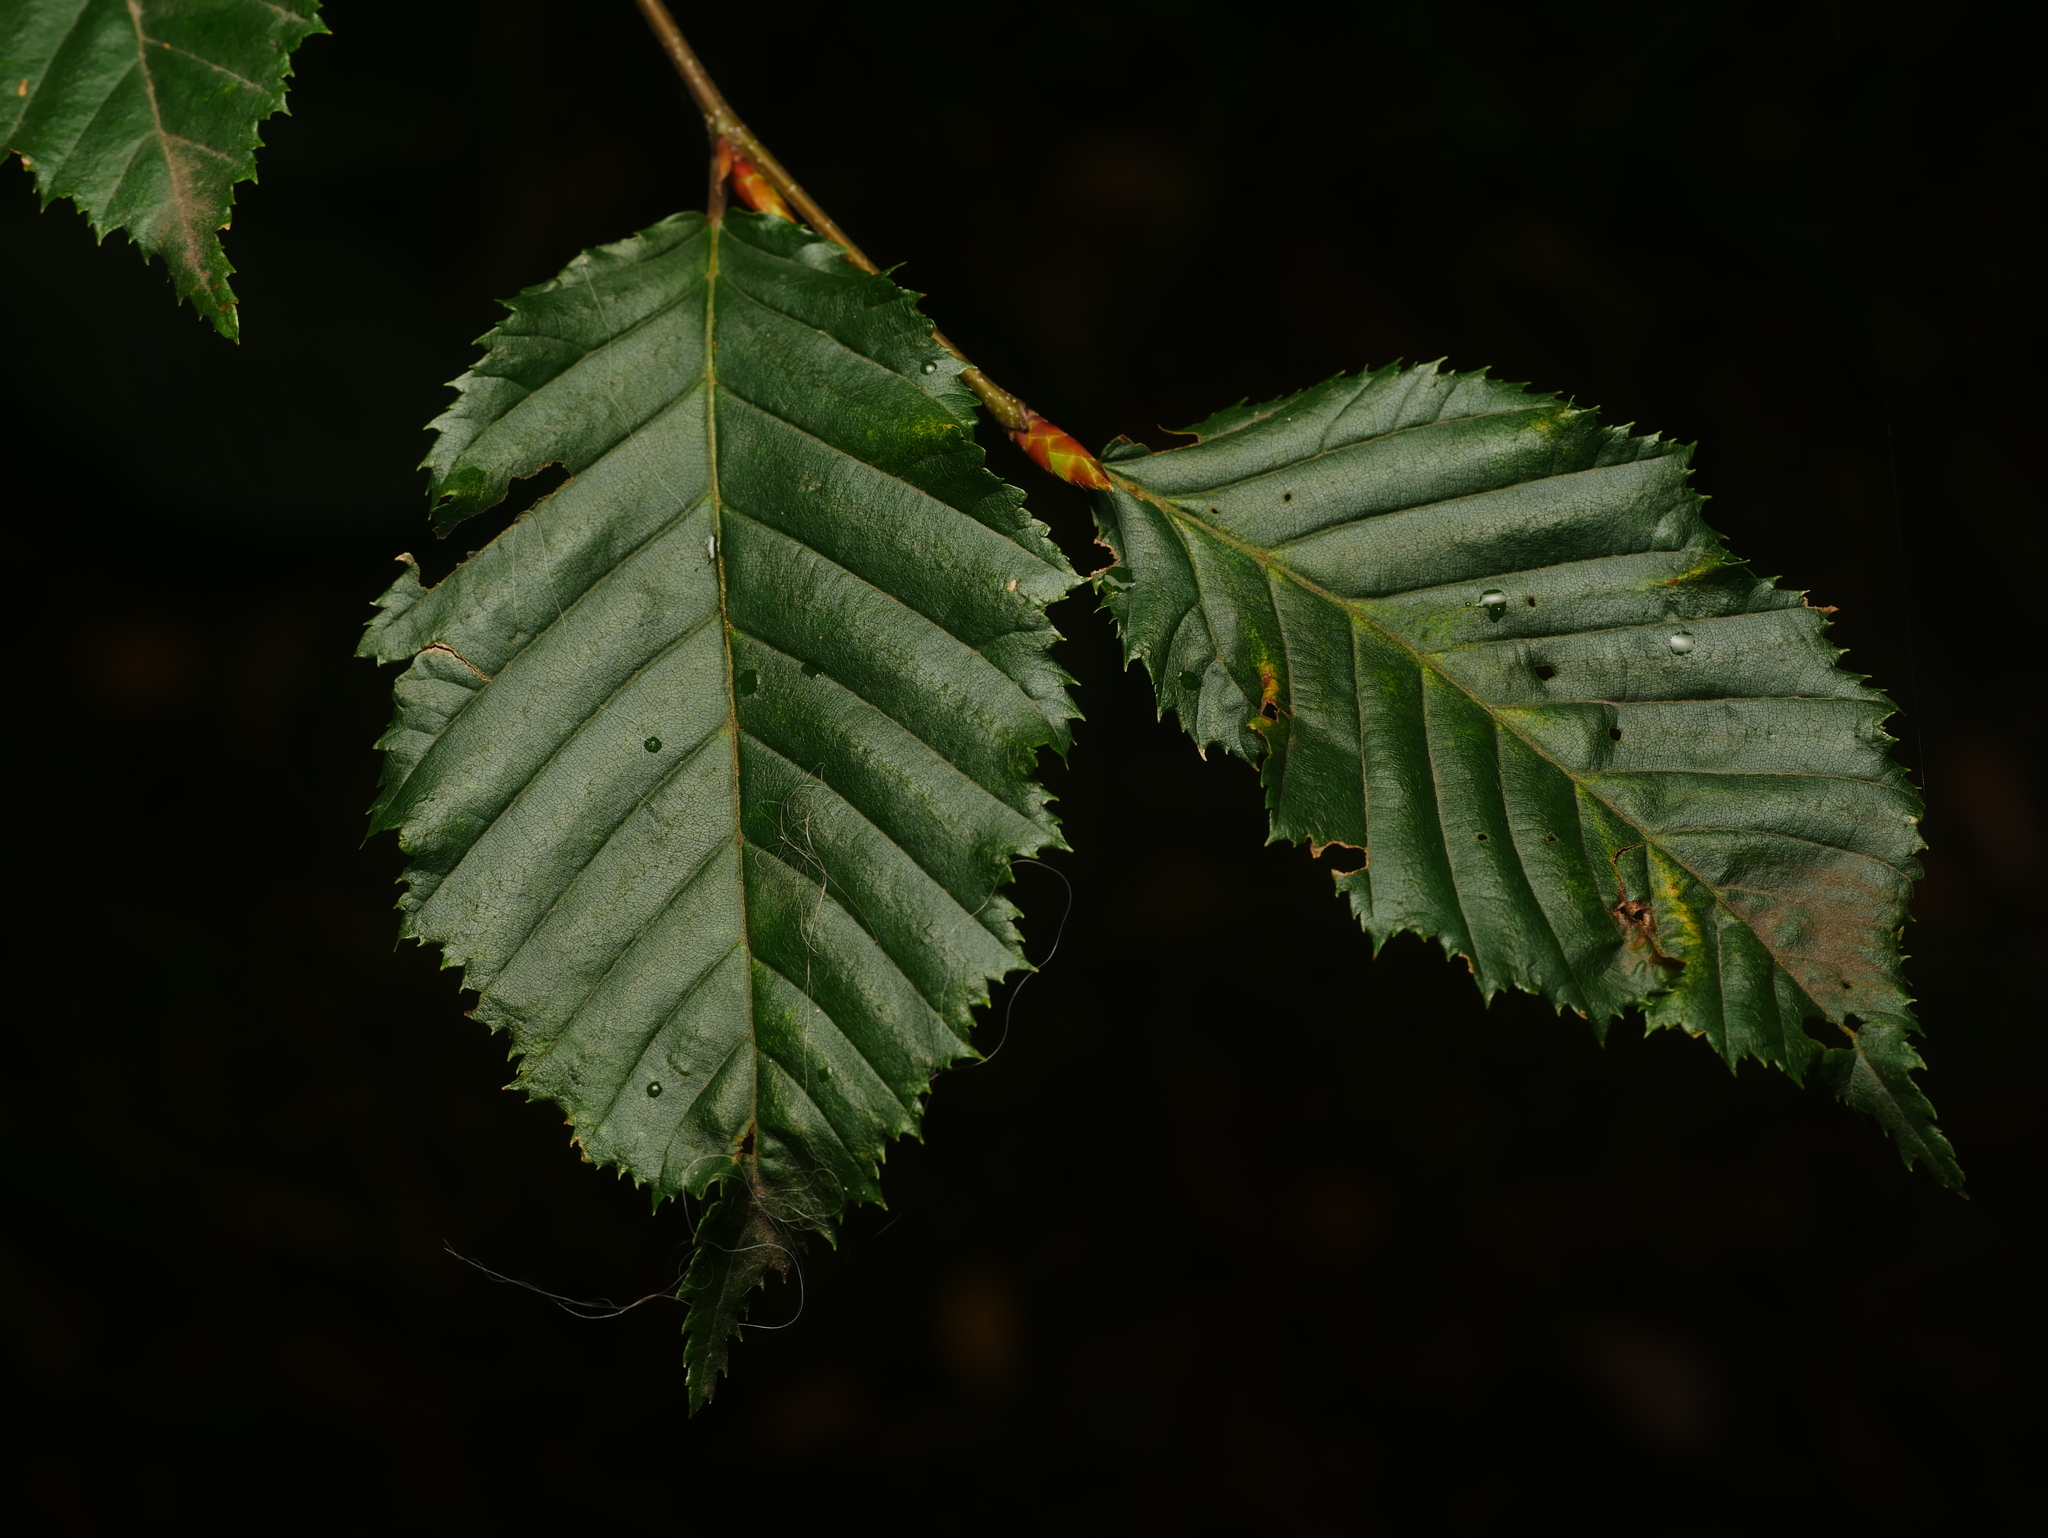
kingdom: Plantae
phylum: Tracheophyta
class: Magnoliopsida
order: Fagales
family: Betulaceae
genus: Carpinus
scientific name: Carpinus betulus
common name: Hornbeam
